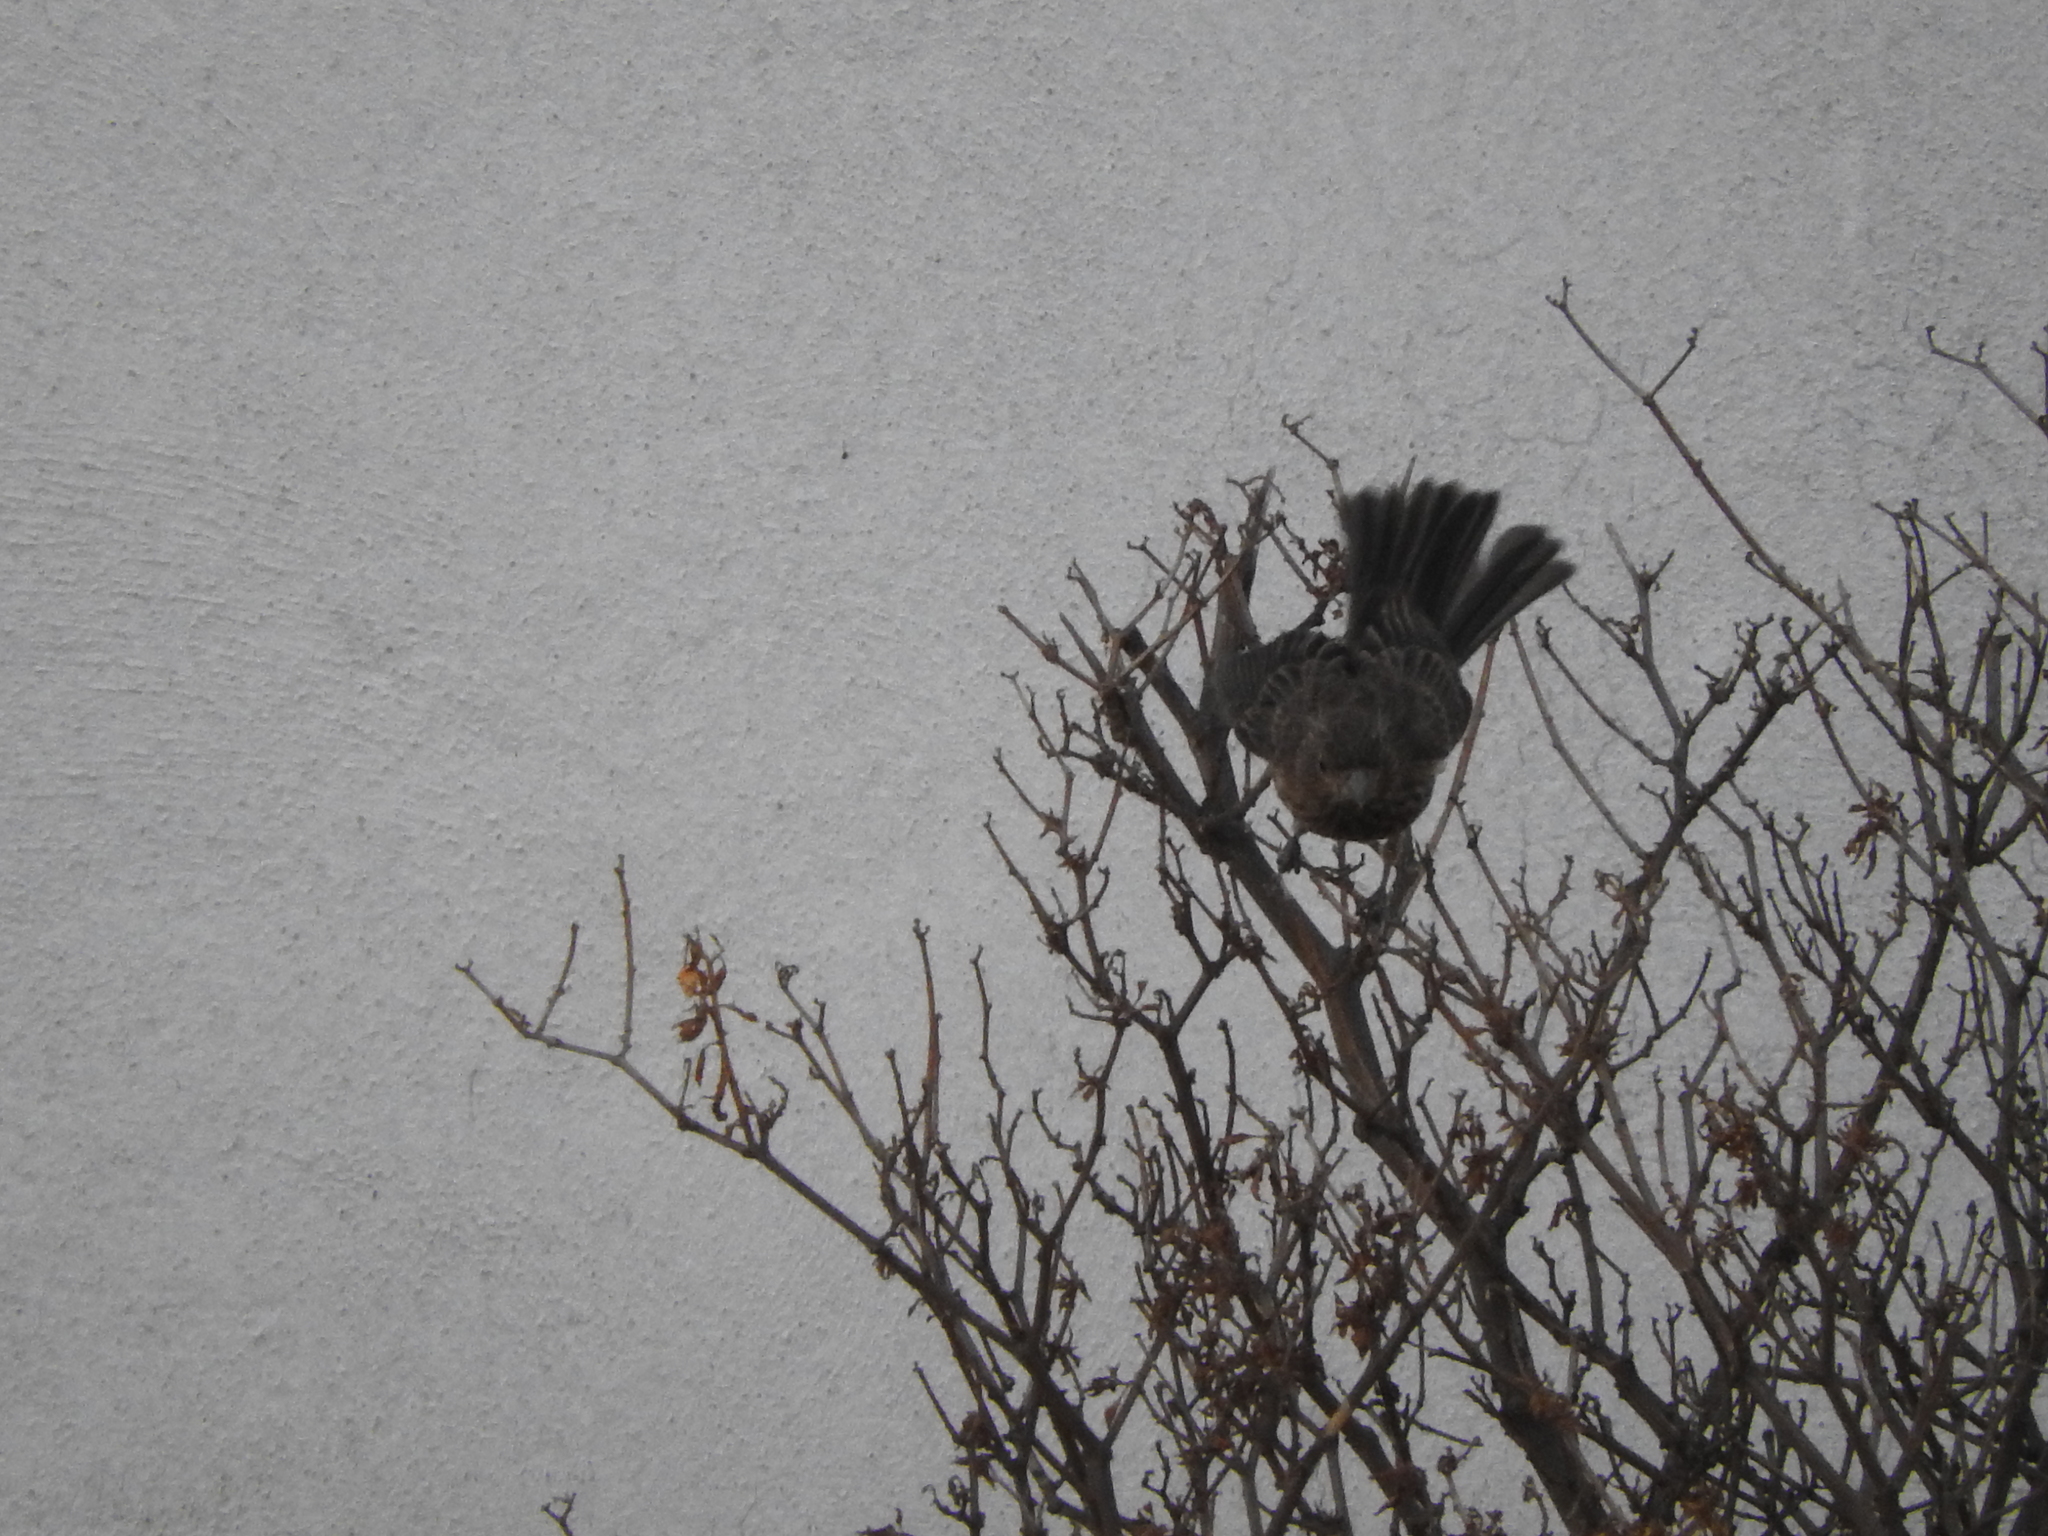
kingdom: Animalia
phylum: Chordata
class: Aves
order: Passeriformes
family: Fringillidae
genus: Haemorhous
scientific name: Haemorhous mexicanus
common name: House finch
